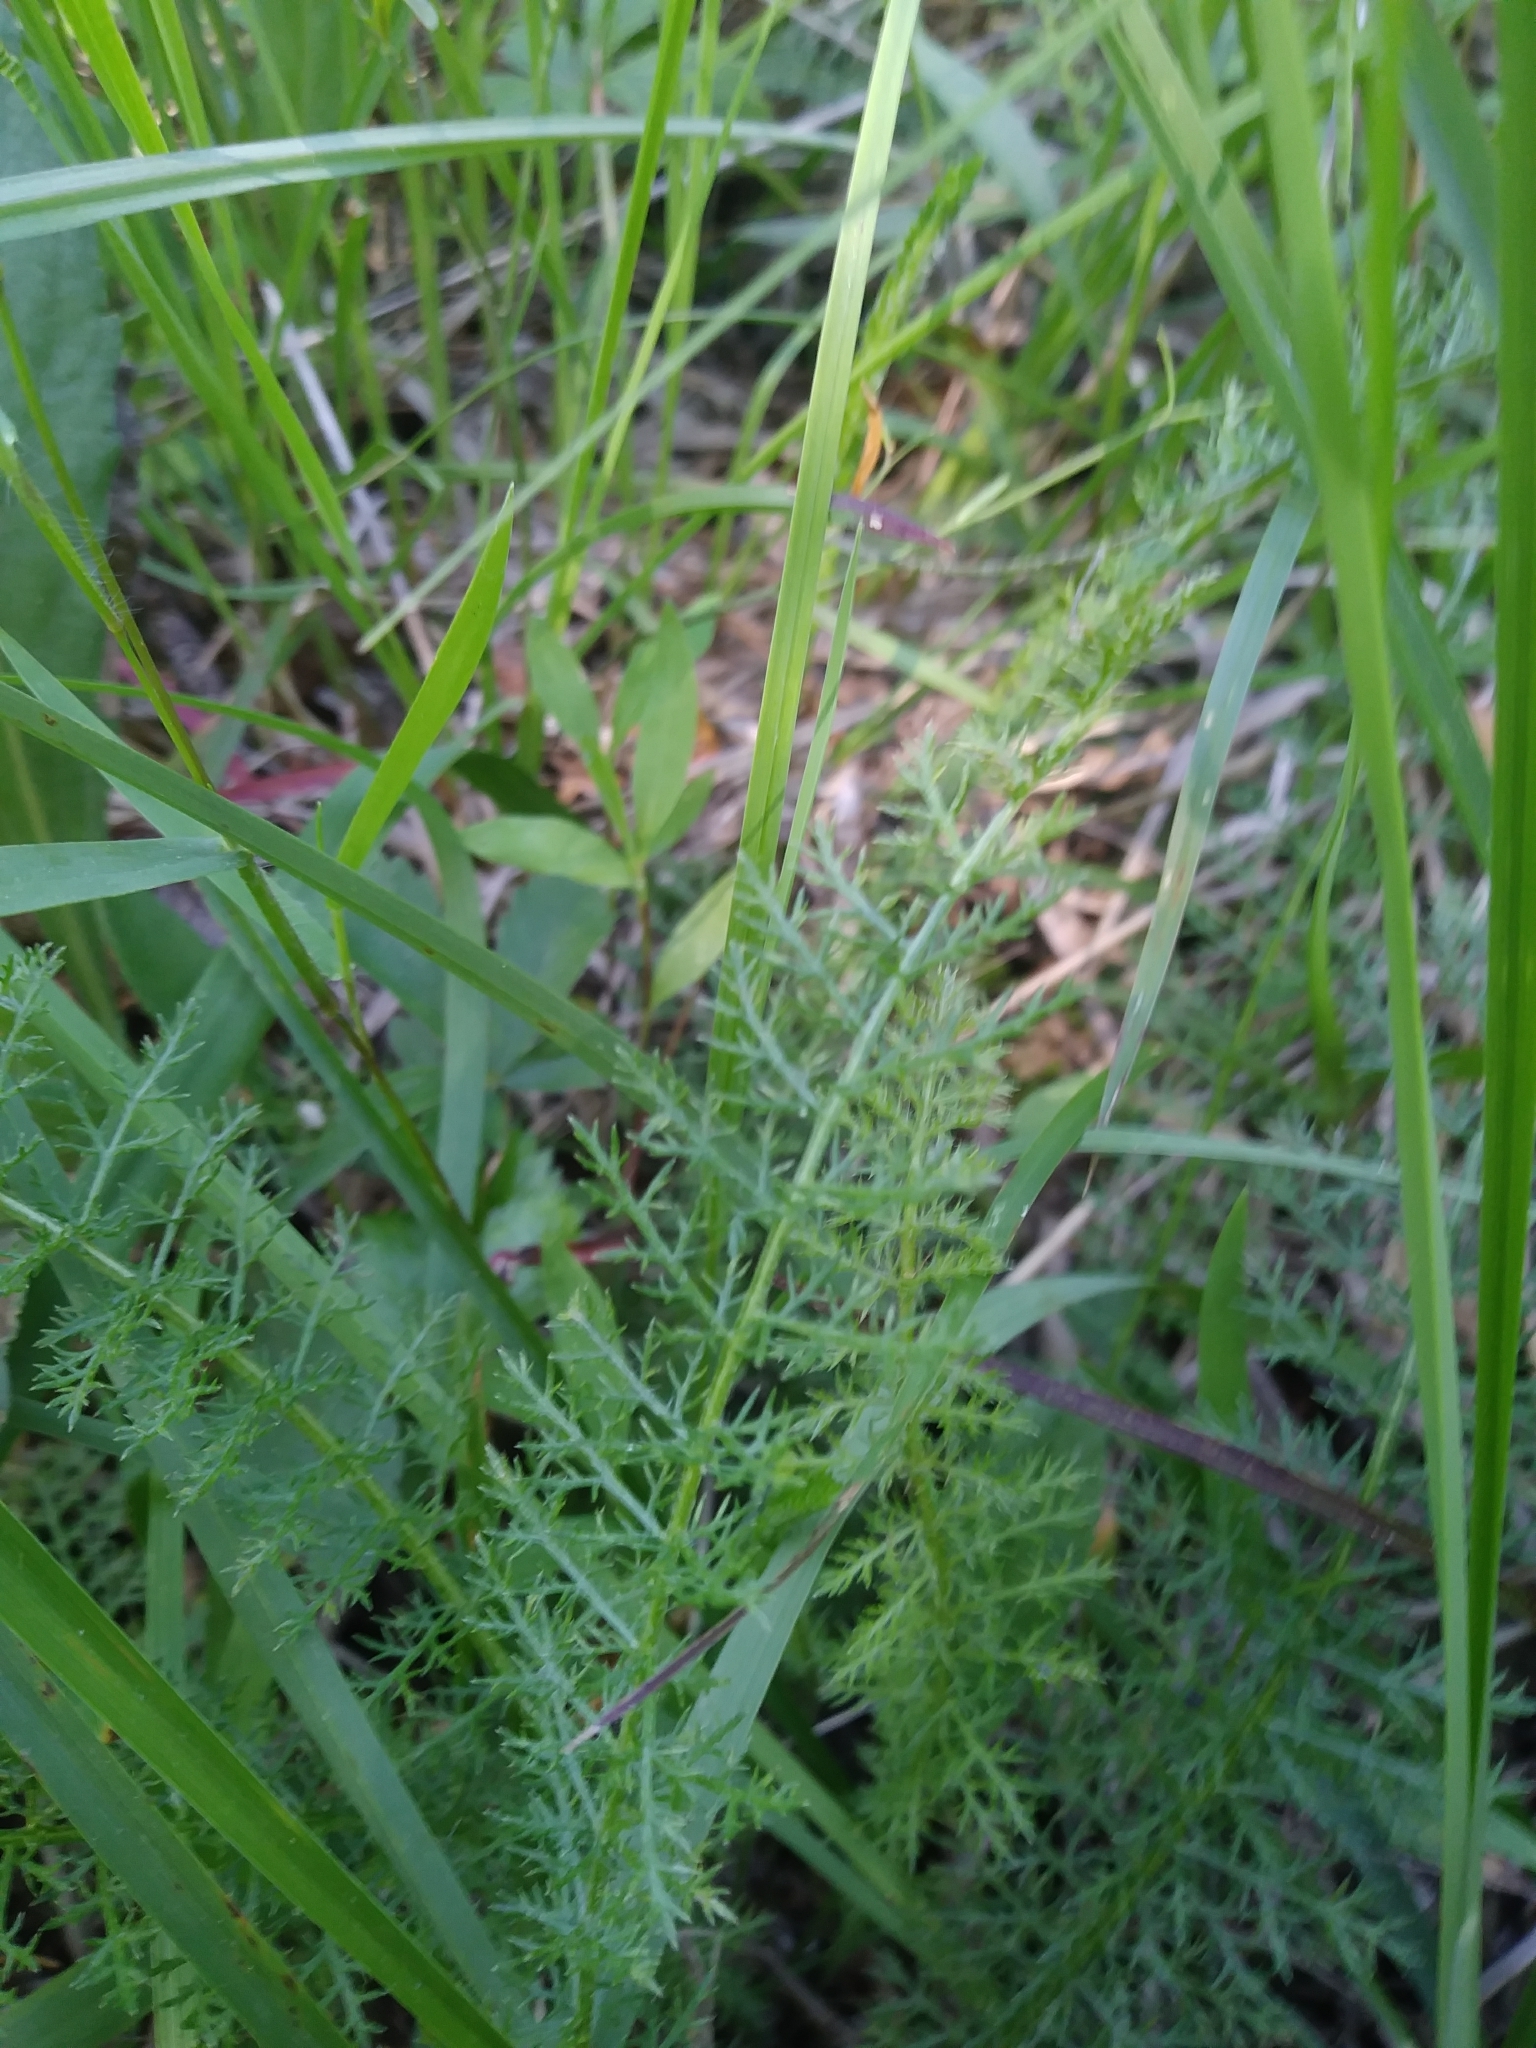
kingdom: Plantae
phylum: Tracheophyta
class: Magnoliopsida
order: Asterales
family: Asteraceae
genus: Achillea
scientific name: Achillea millefolium
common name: Yarrow
